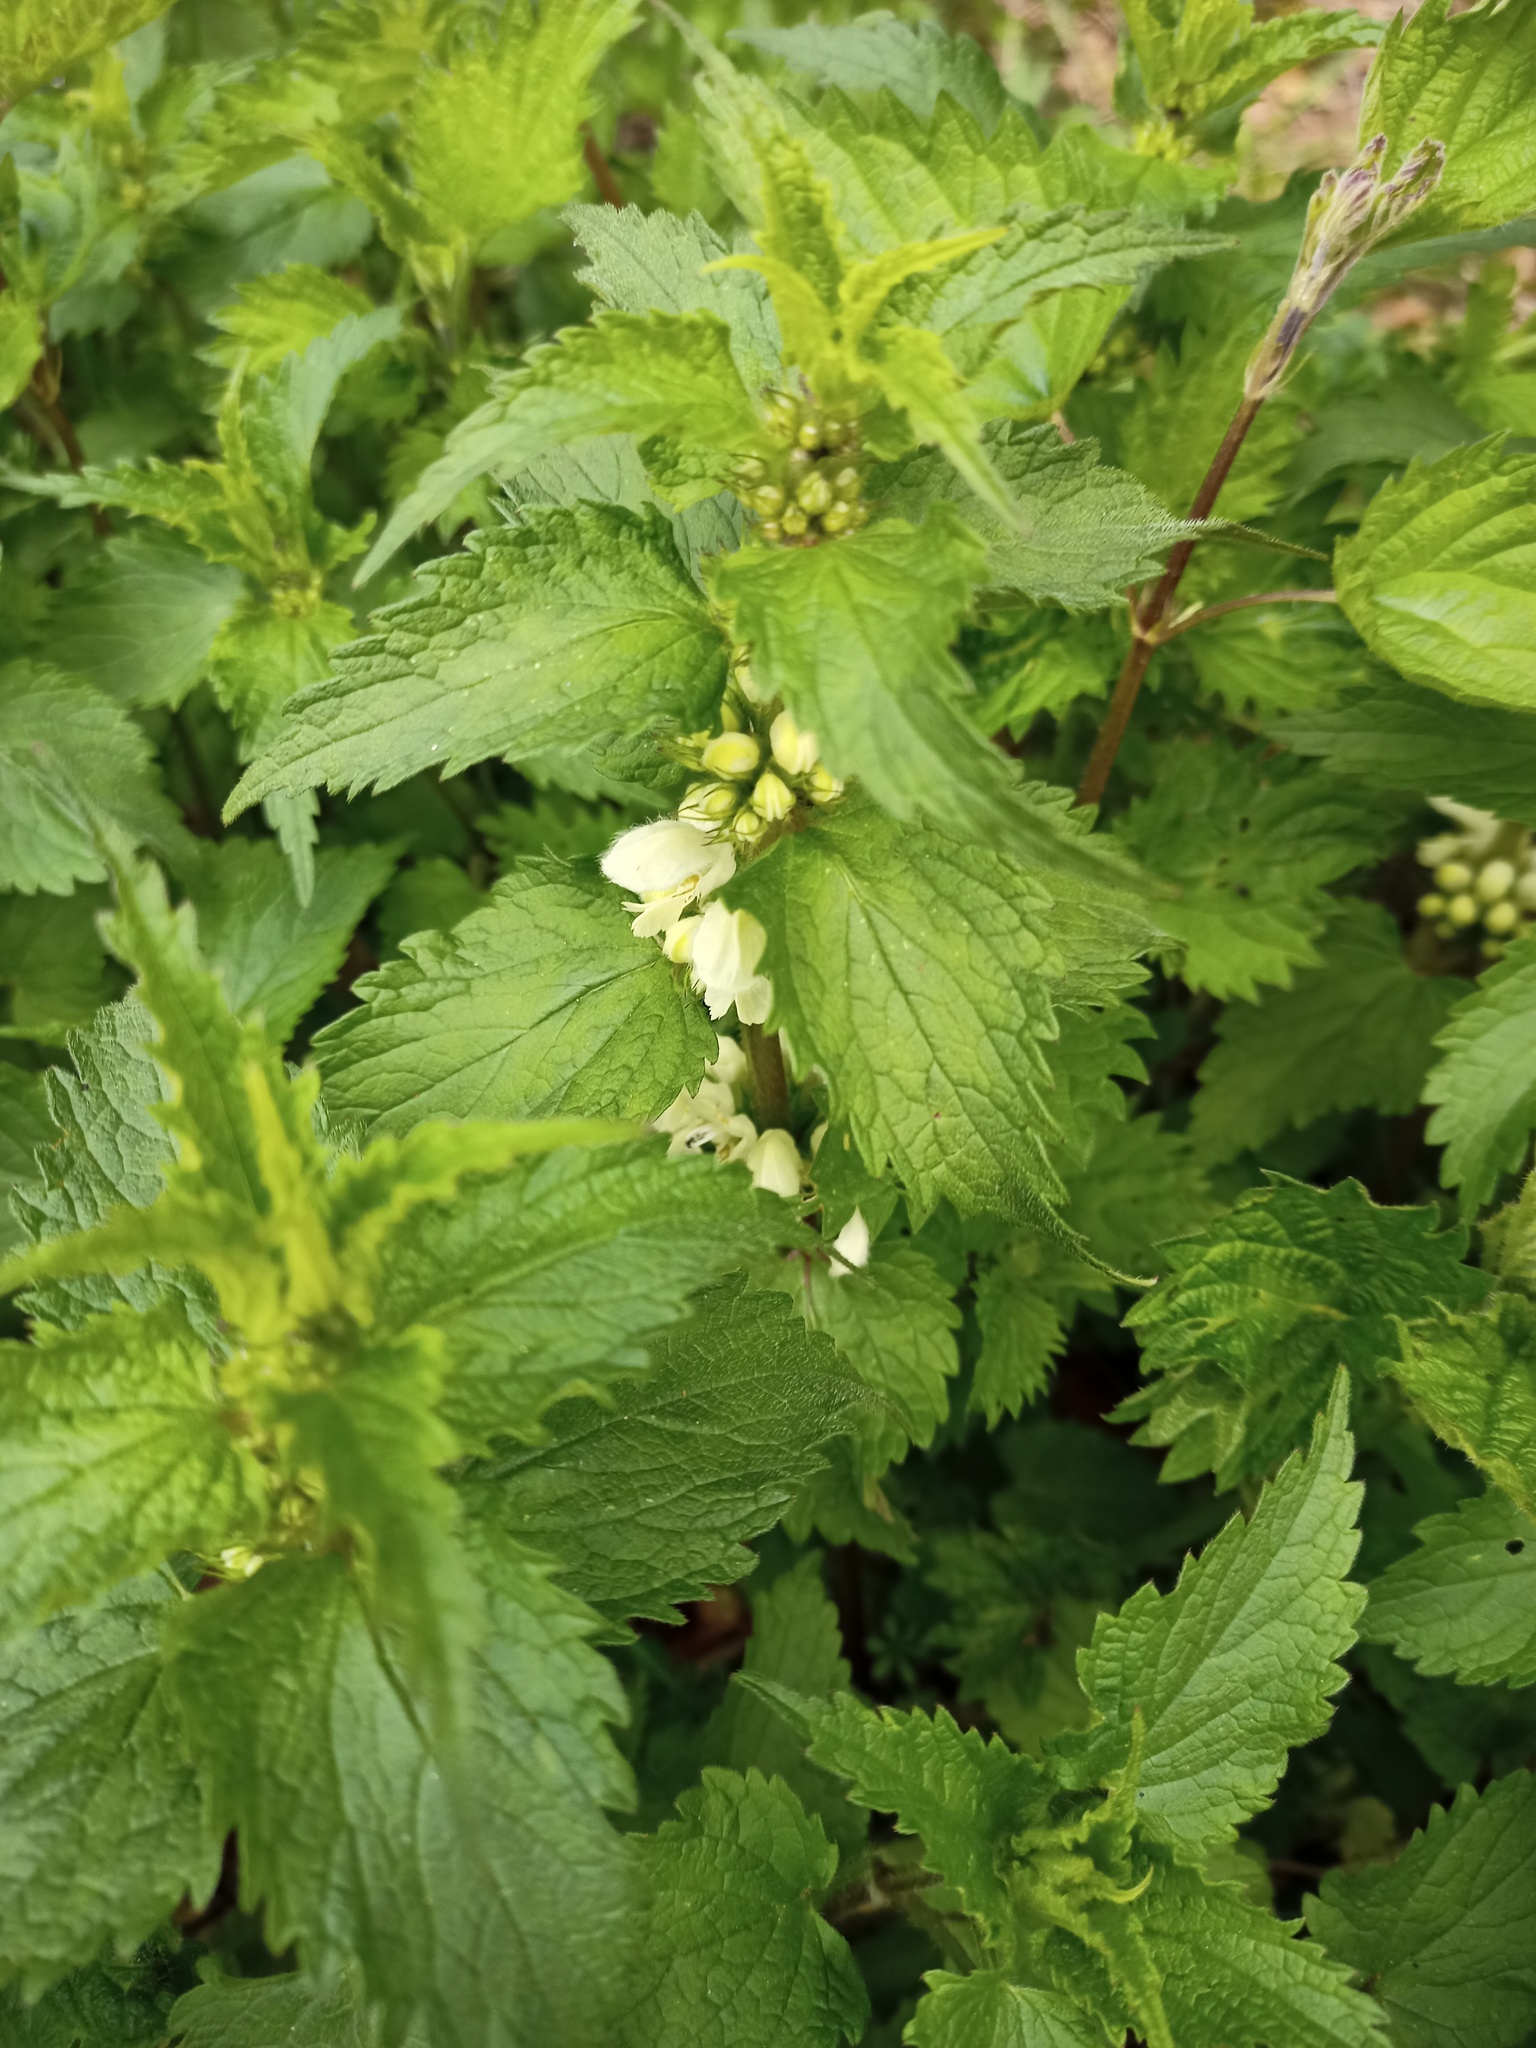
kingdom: Plantae
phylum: Tracheophyta
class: Magnoliopsida
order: Lamiales
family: Lamiaceae
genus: Lamium
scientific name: Lamium album
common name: White dead-nettle
